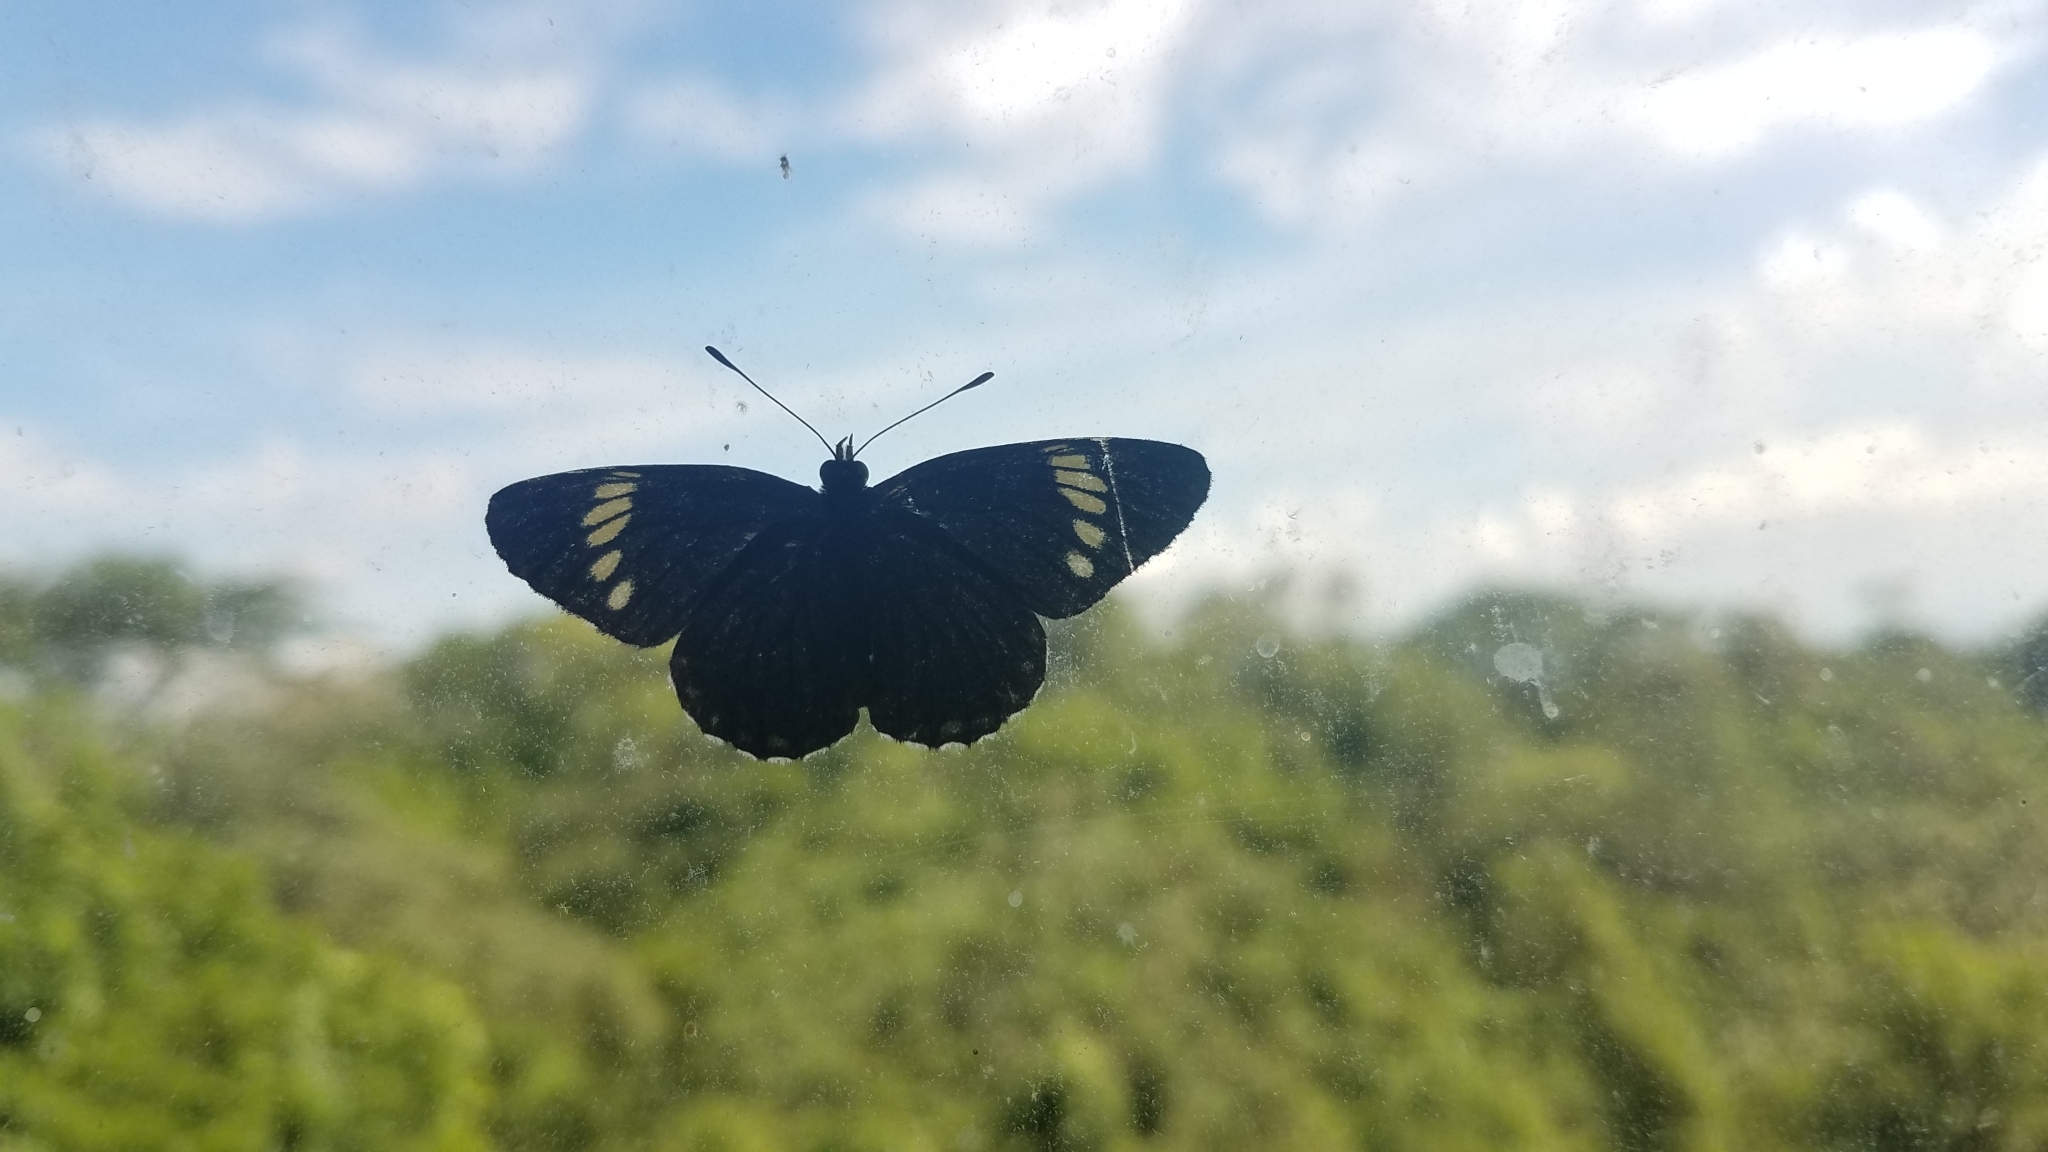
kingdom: Animalia
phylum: Arthropoda
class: Insecta
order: Lepidoptera
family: Nymphalidae
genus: Chlosyne
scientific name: Chlosyne melanarge
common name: Cream-banded checkerspot
